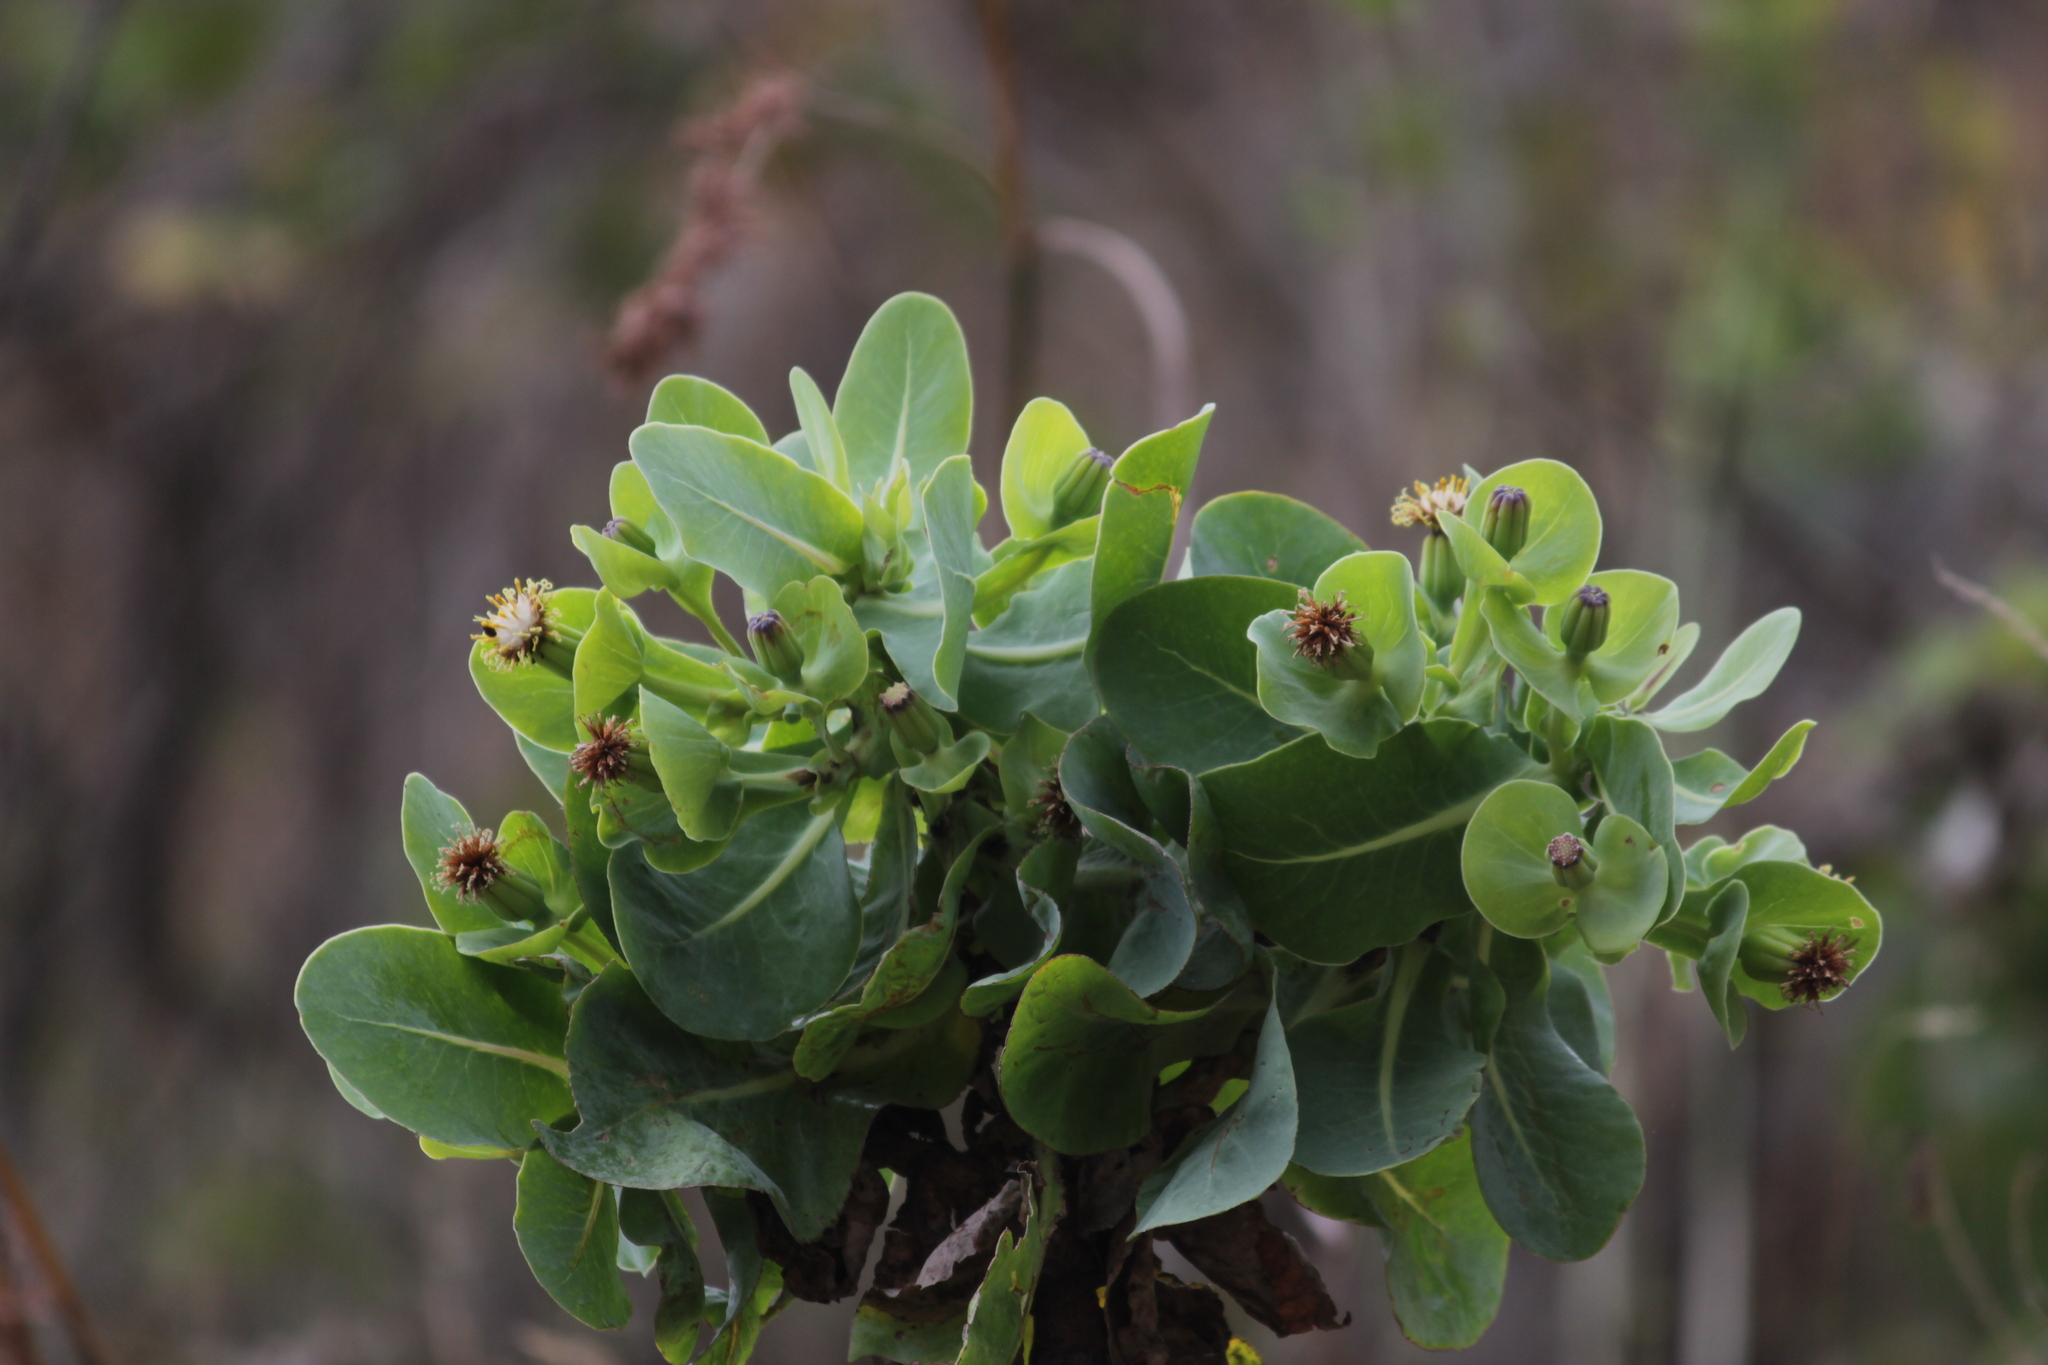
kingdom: Plantae
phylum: Tracheophyta
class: Magnoliopsida
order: Asterales
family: Asteraceae
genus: Lopholaena
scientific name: Lopholaena platyphylla
